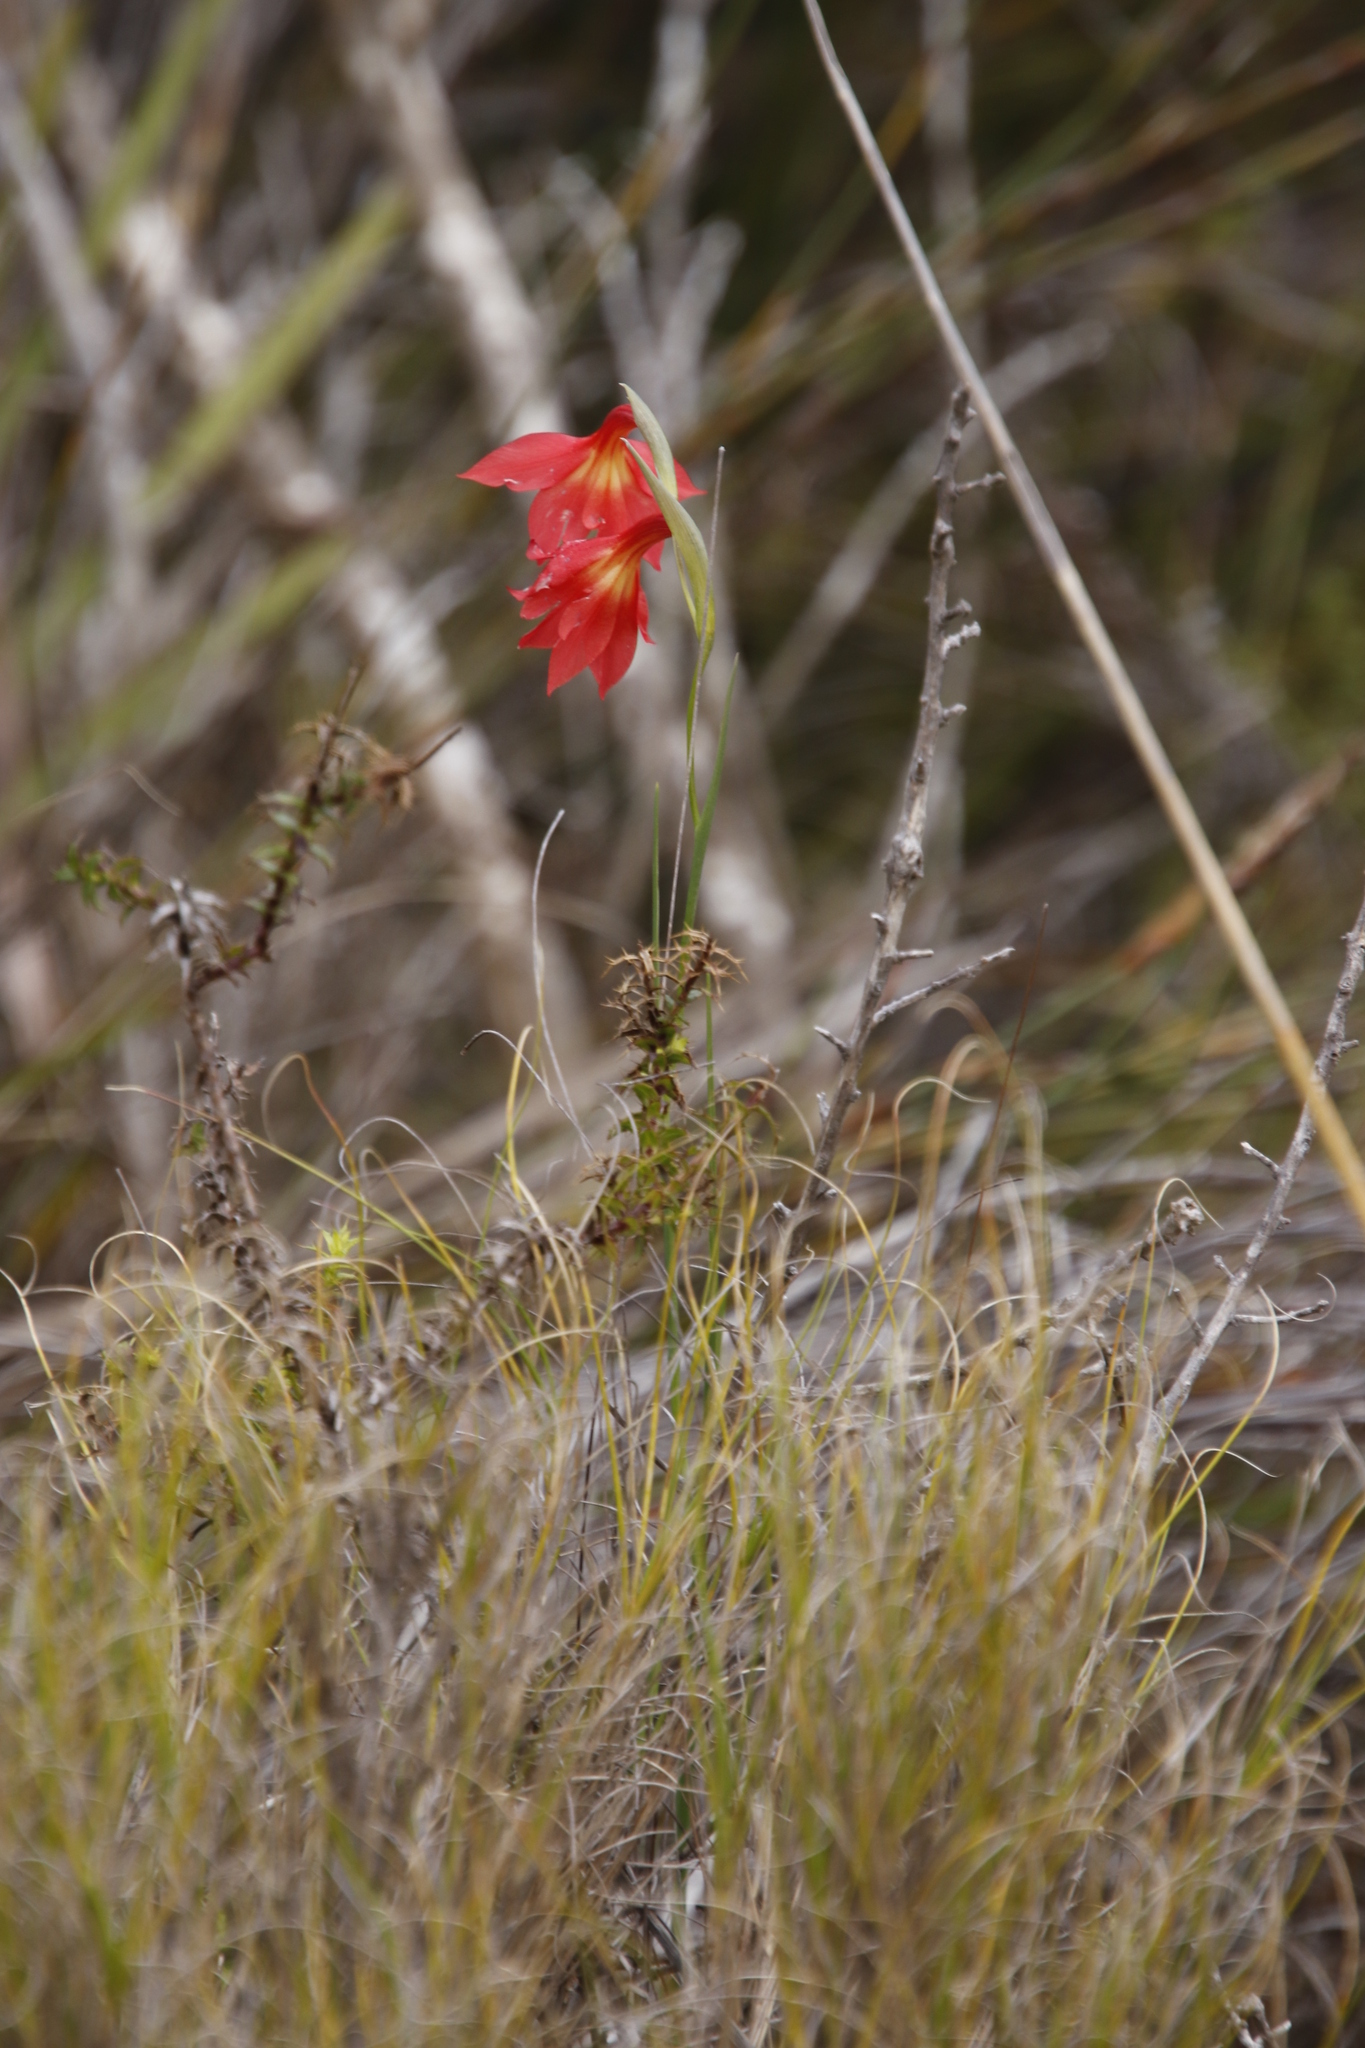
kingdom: Plantae
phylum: Tracheophyta
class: Liliopsida
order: Asparagales
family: Iridaceae
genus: Gladiolus
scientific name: Gladiolus priorii
